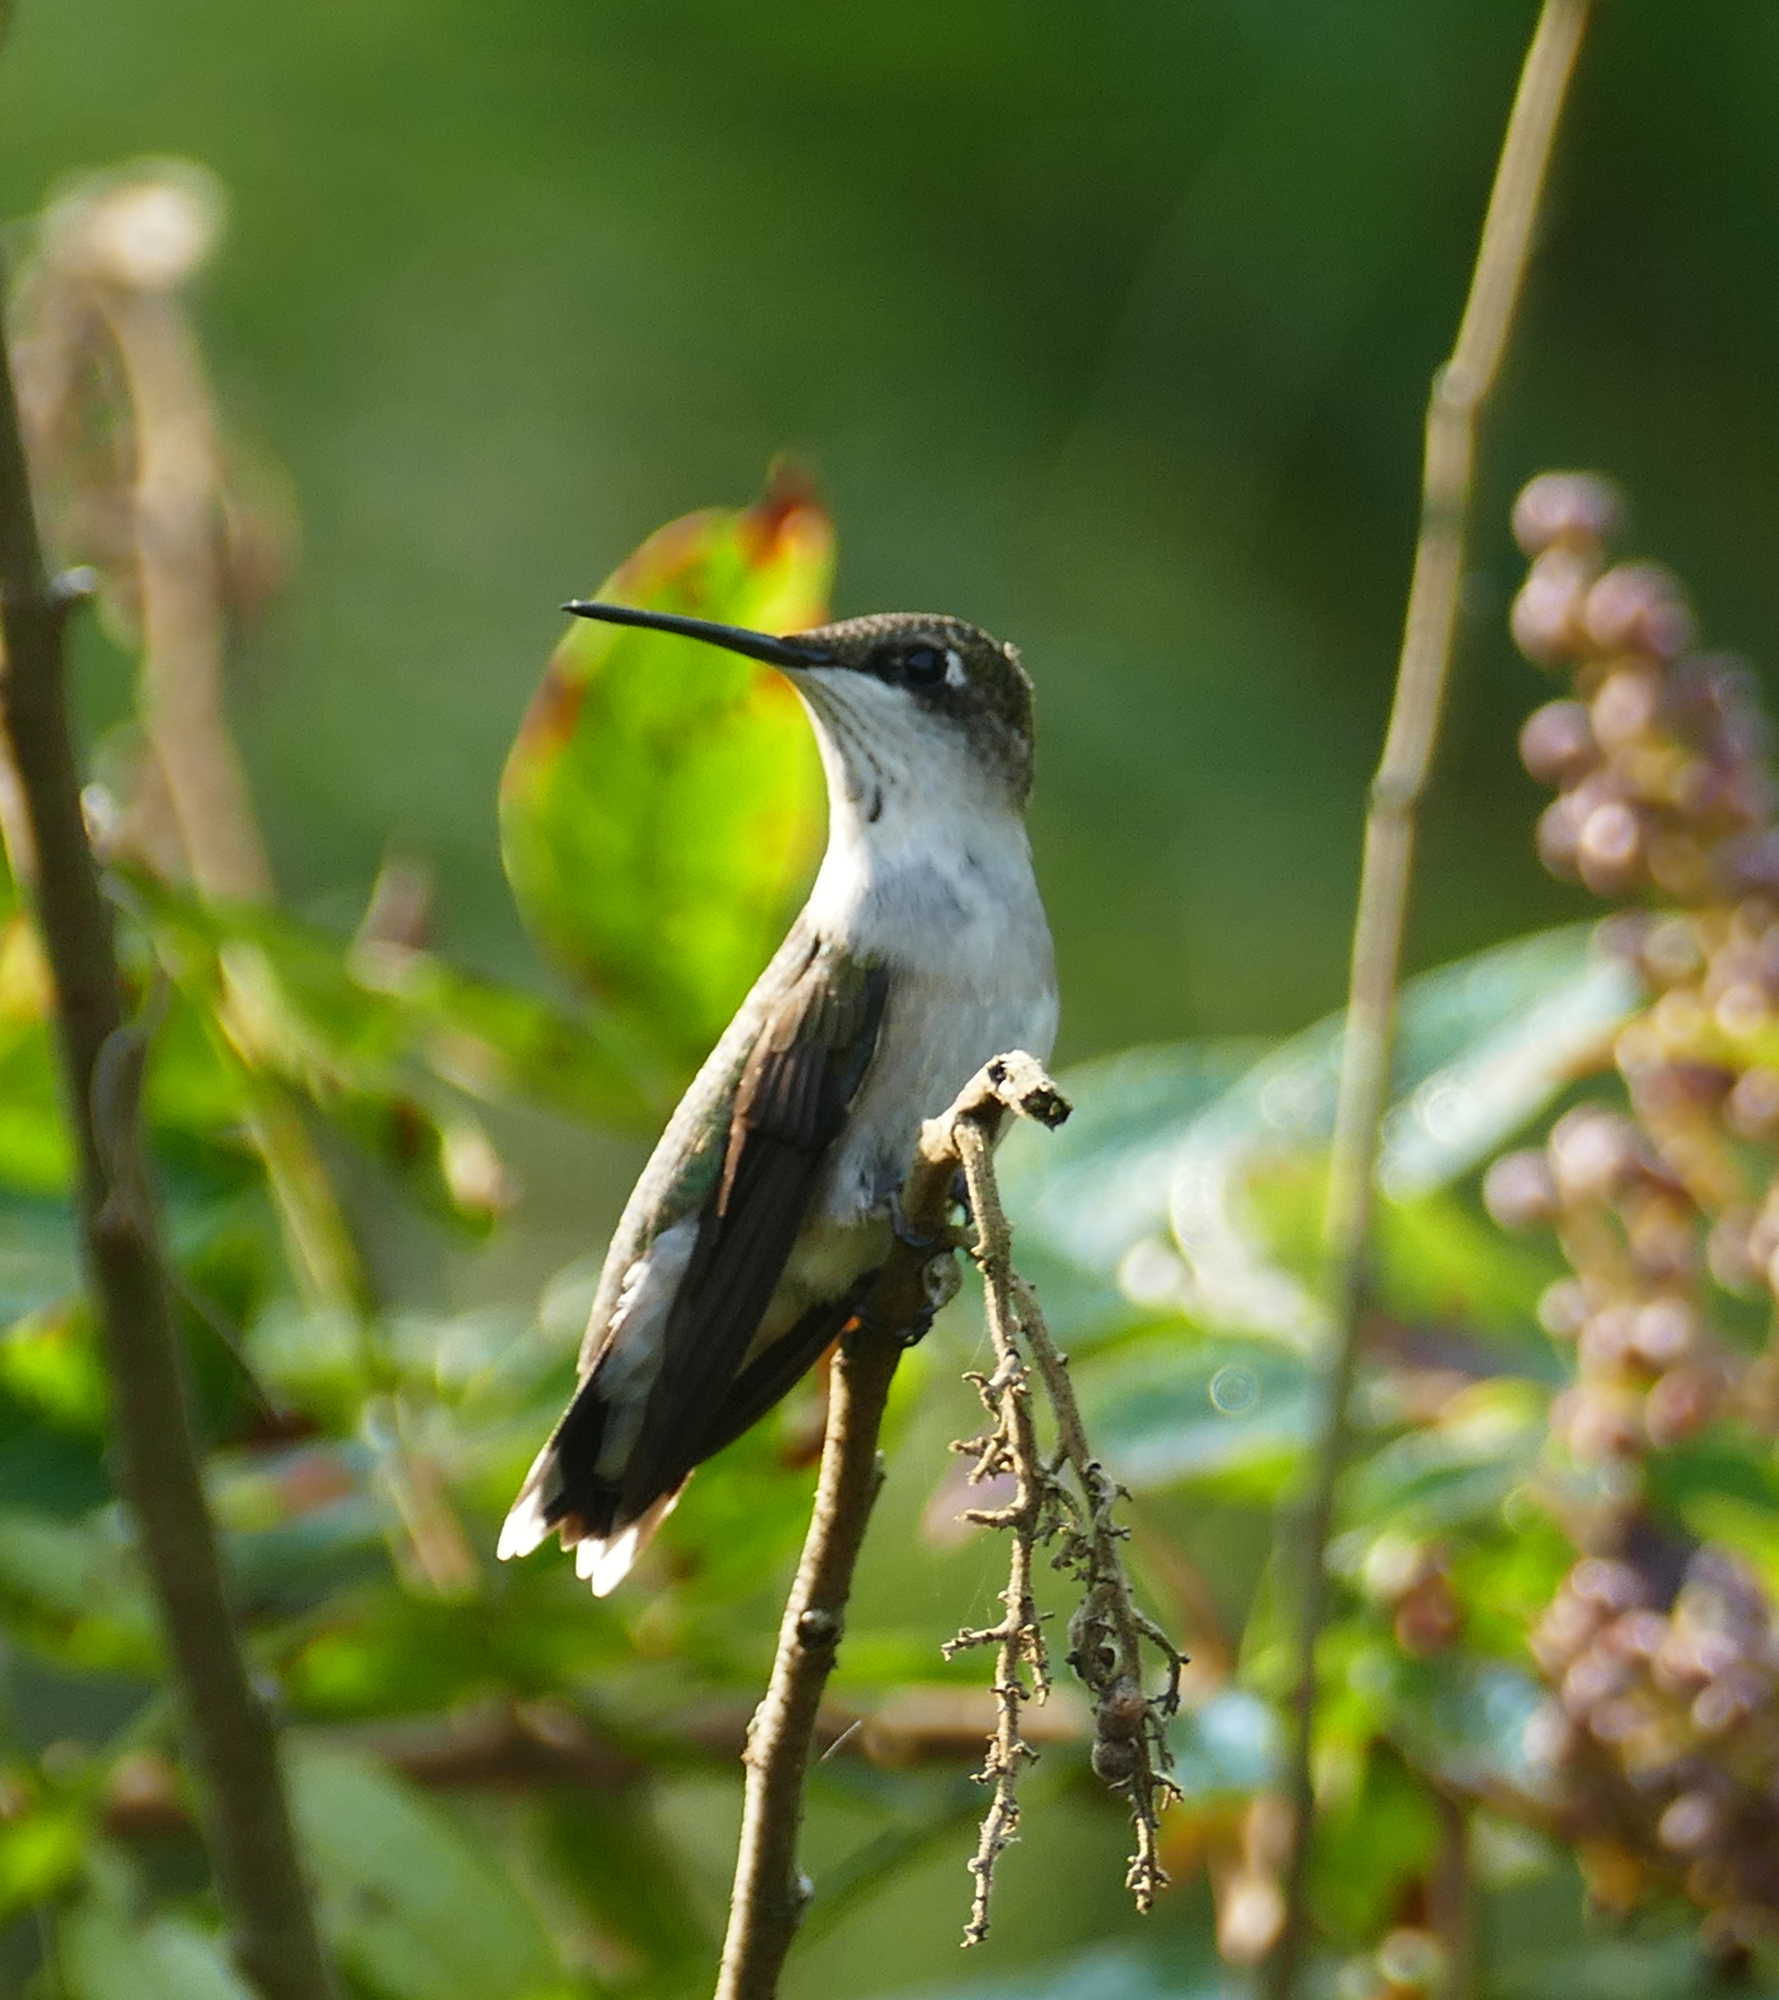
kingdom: Animalia
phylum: Chordata
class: Aves
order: Apodiformes
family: Trochilidae
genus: Archilochus
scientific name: Archilochus colubris
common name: Ruby-throated hummingbird
